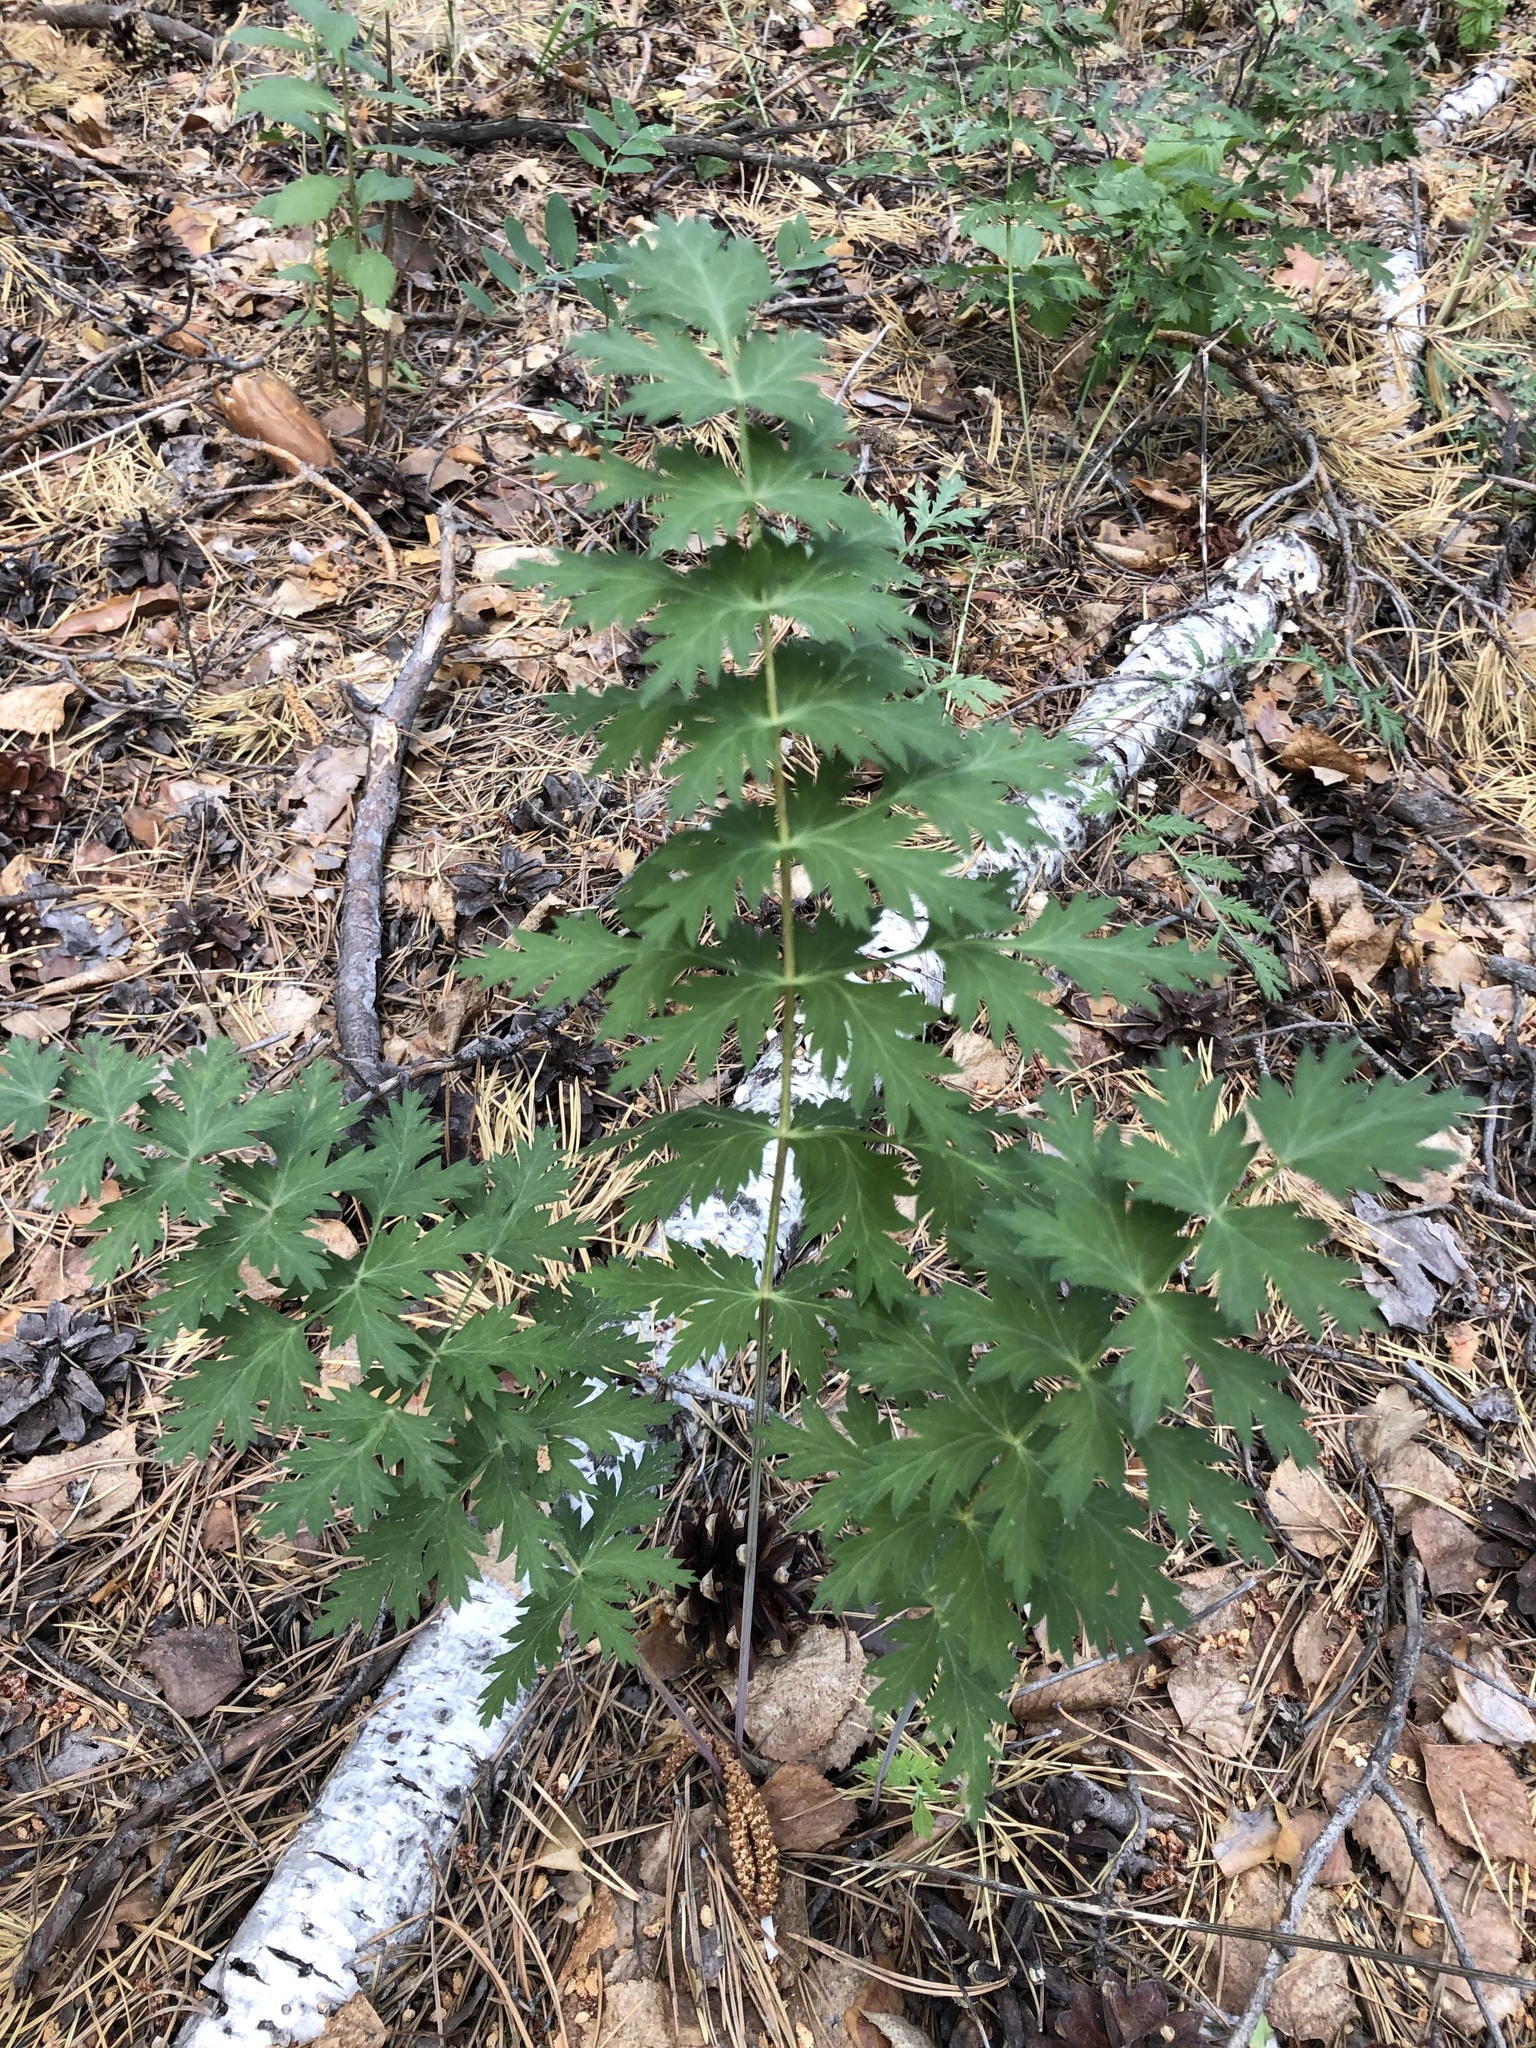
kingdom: Plantae
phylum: Tracheophyta
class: Magnoliopsida
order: Apiales
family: Apiaceae
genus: Seseli
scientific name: Seseli libanotis
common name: Mooncarrot
